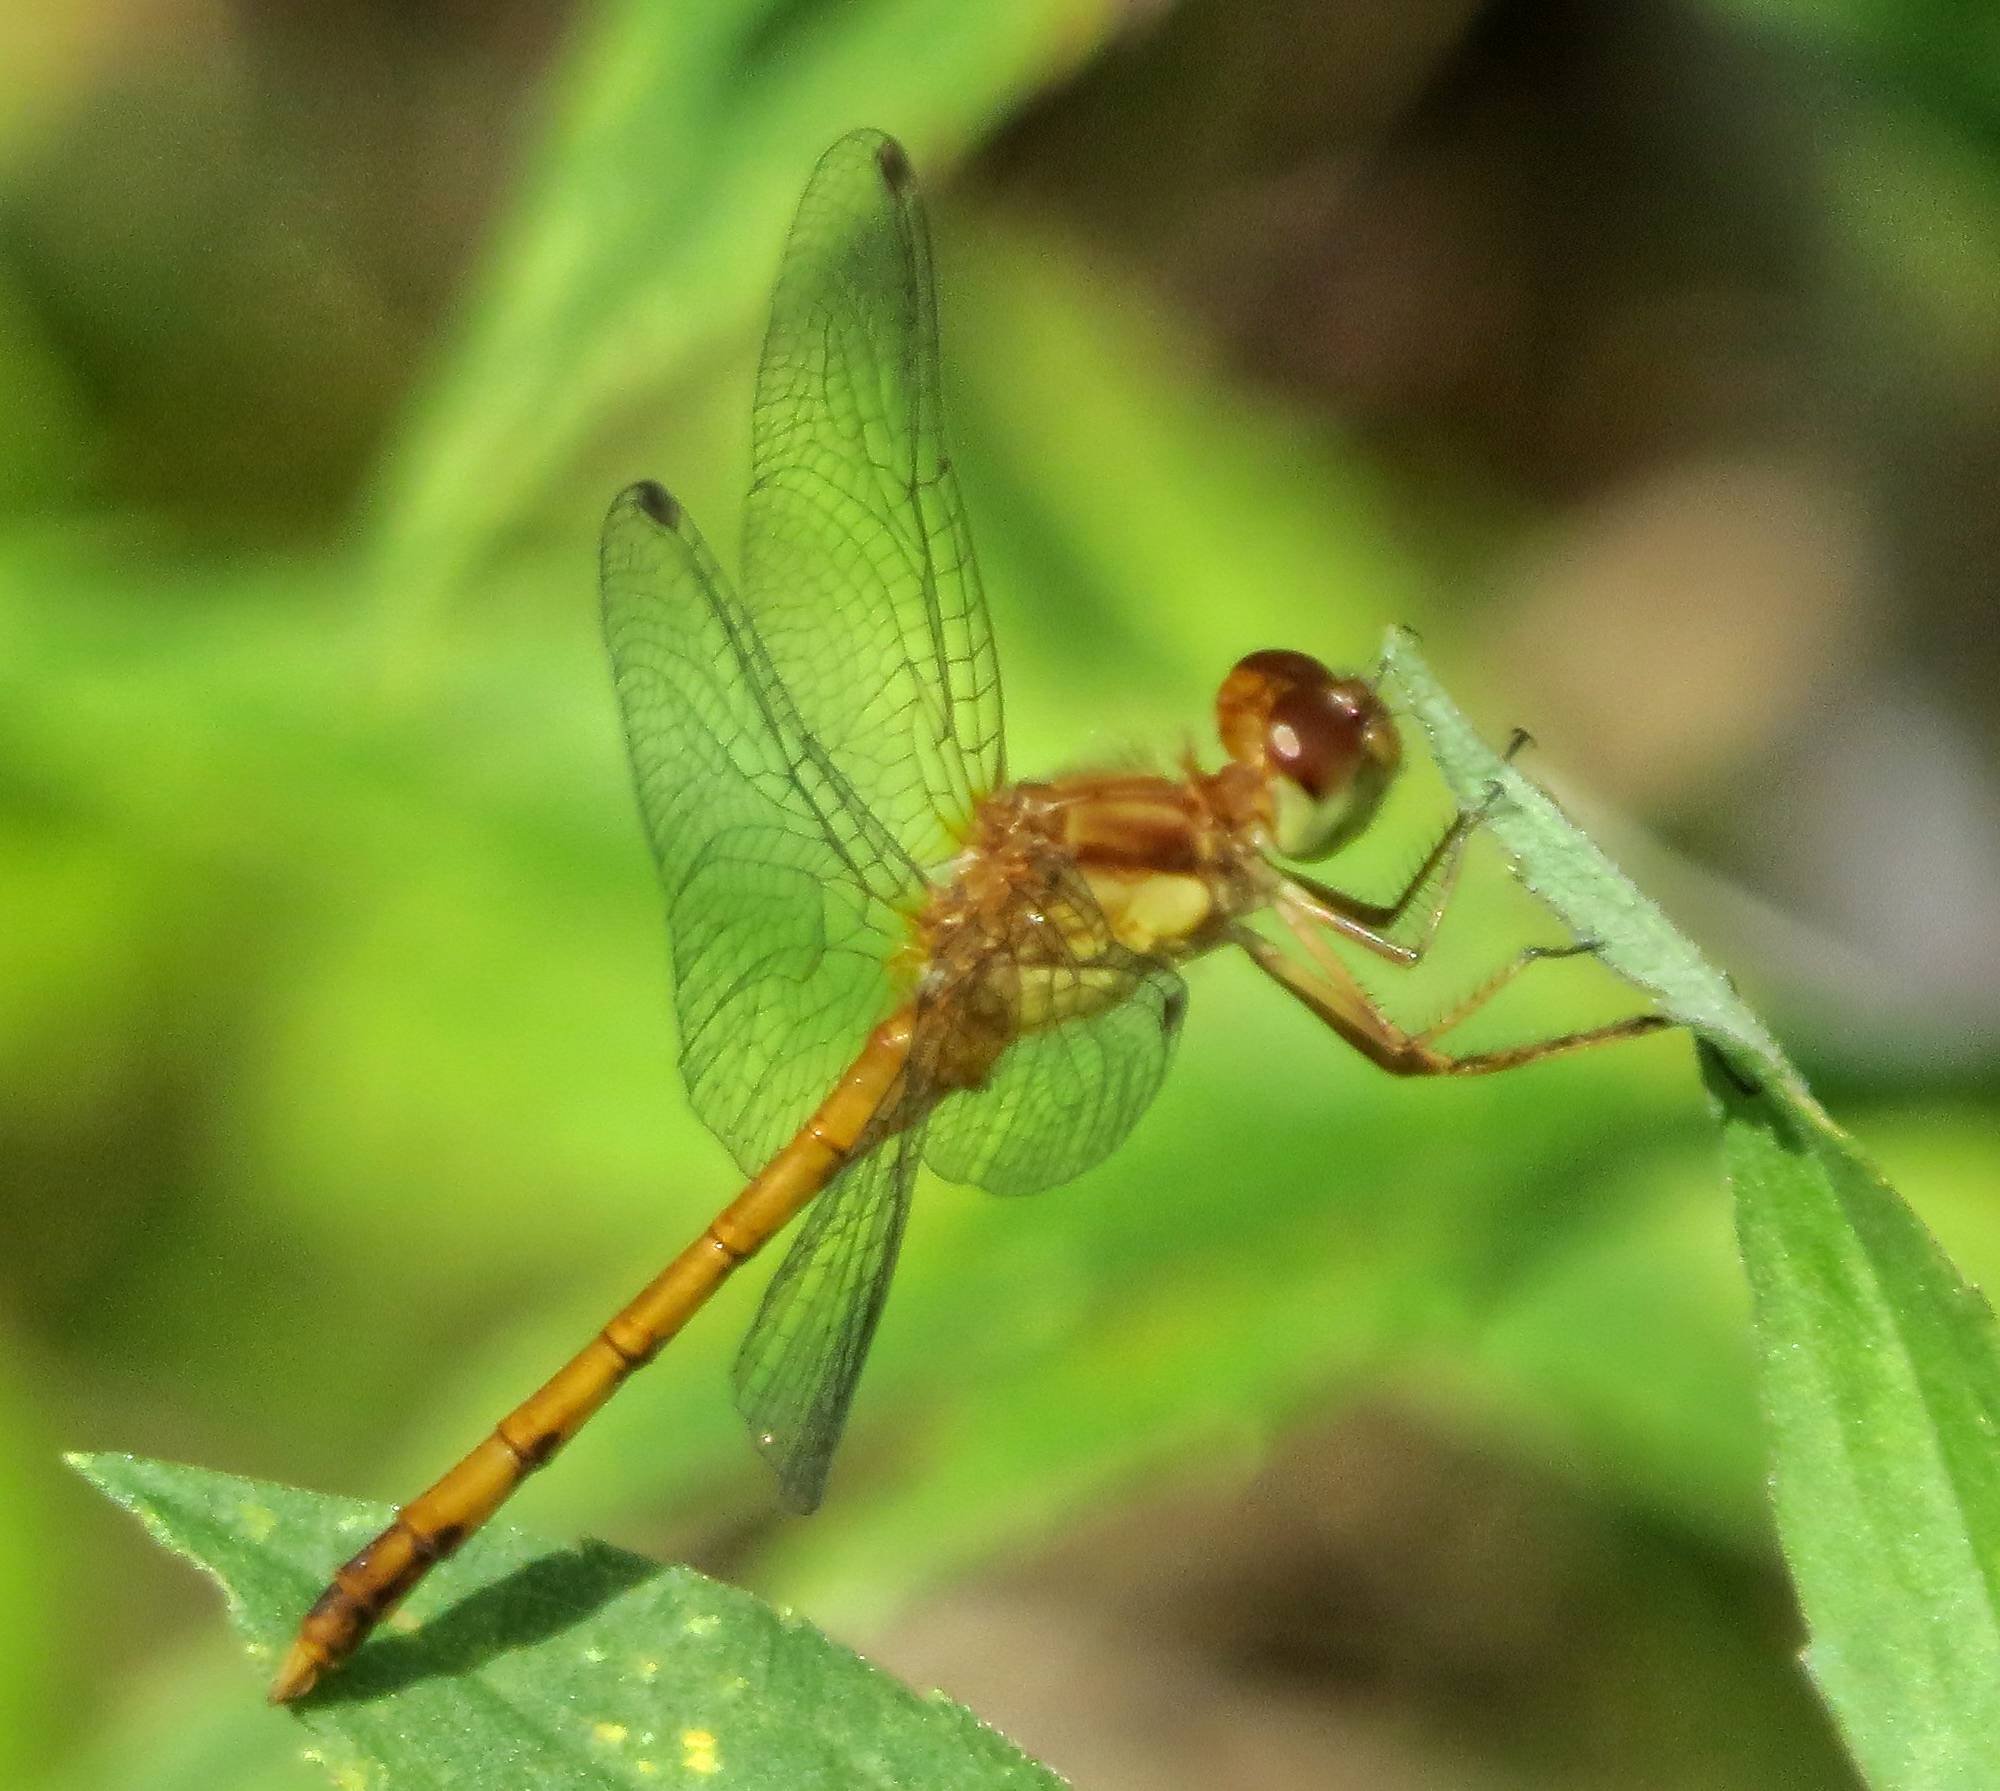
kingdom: Animalia
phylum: Arthropoda
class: Insecta
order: Odonata
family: Libellulidae
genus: Sympetrum
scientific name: Sympetrum vicinum
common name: Autumn meadowhawk
